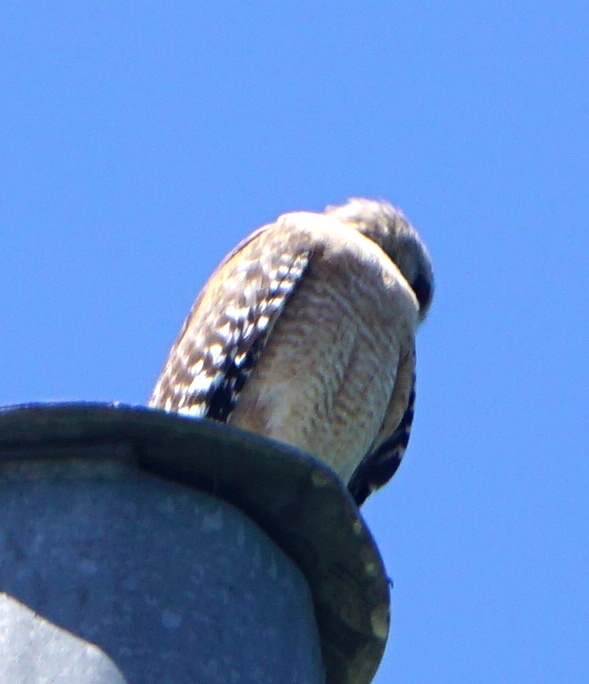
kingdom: Animalia
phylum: Chordata
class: Aves
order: Accipitriformes
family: Accipitridae
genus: Buteo
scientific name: Buteo lineatus
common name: Red-shouldered hawk
